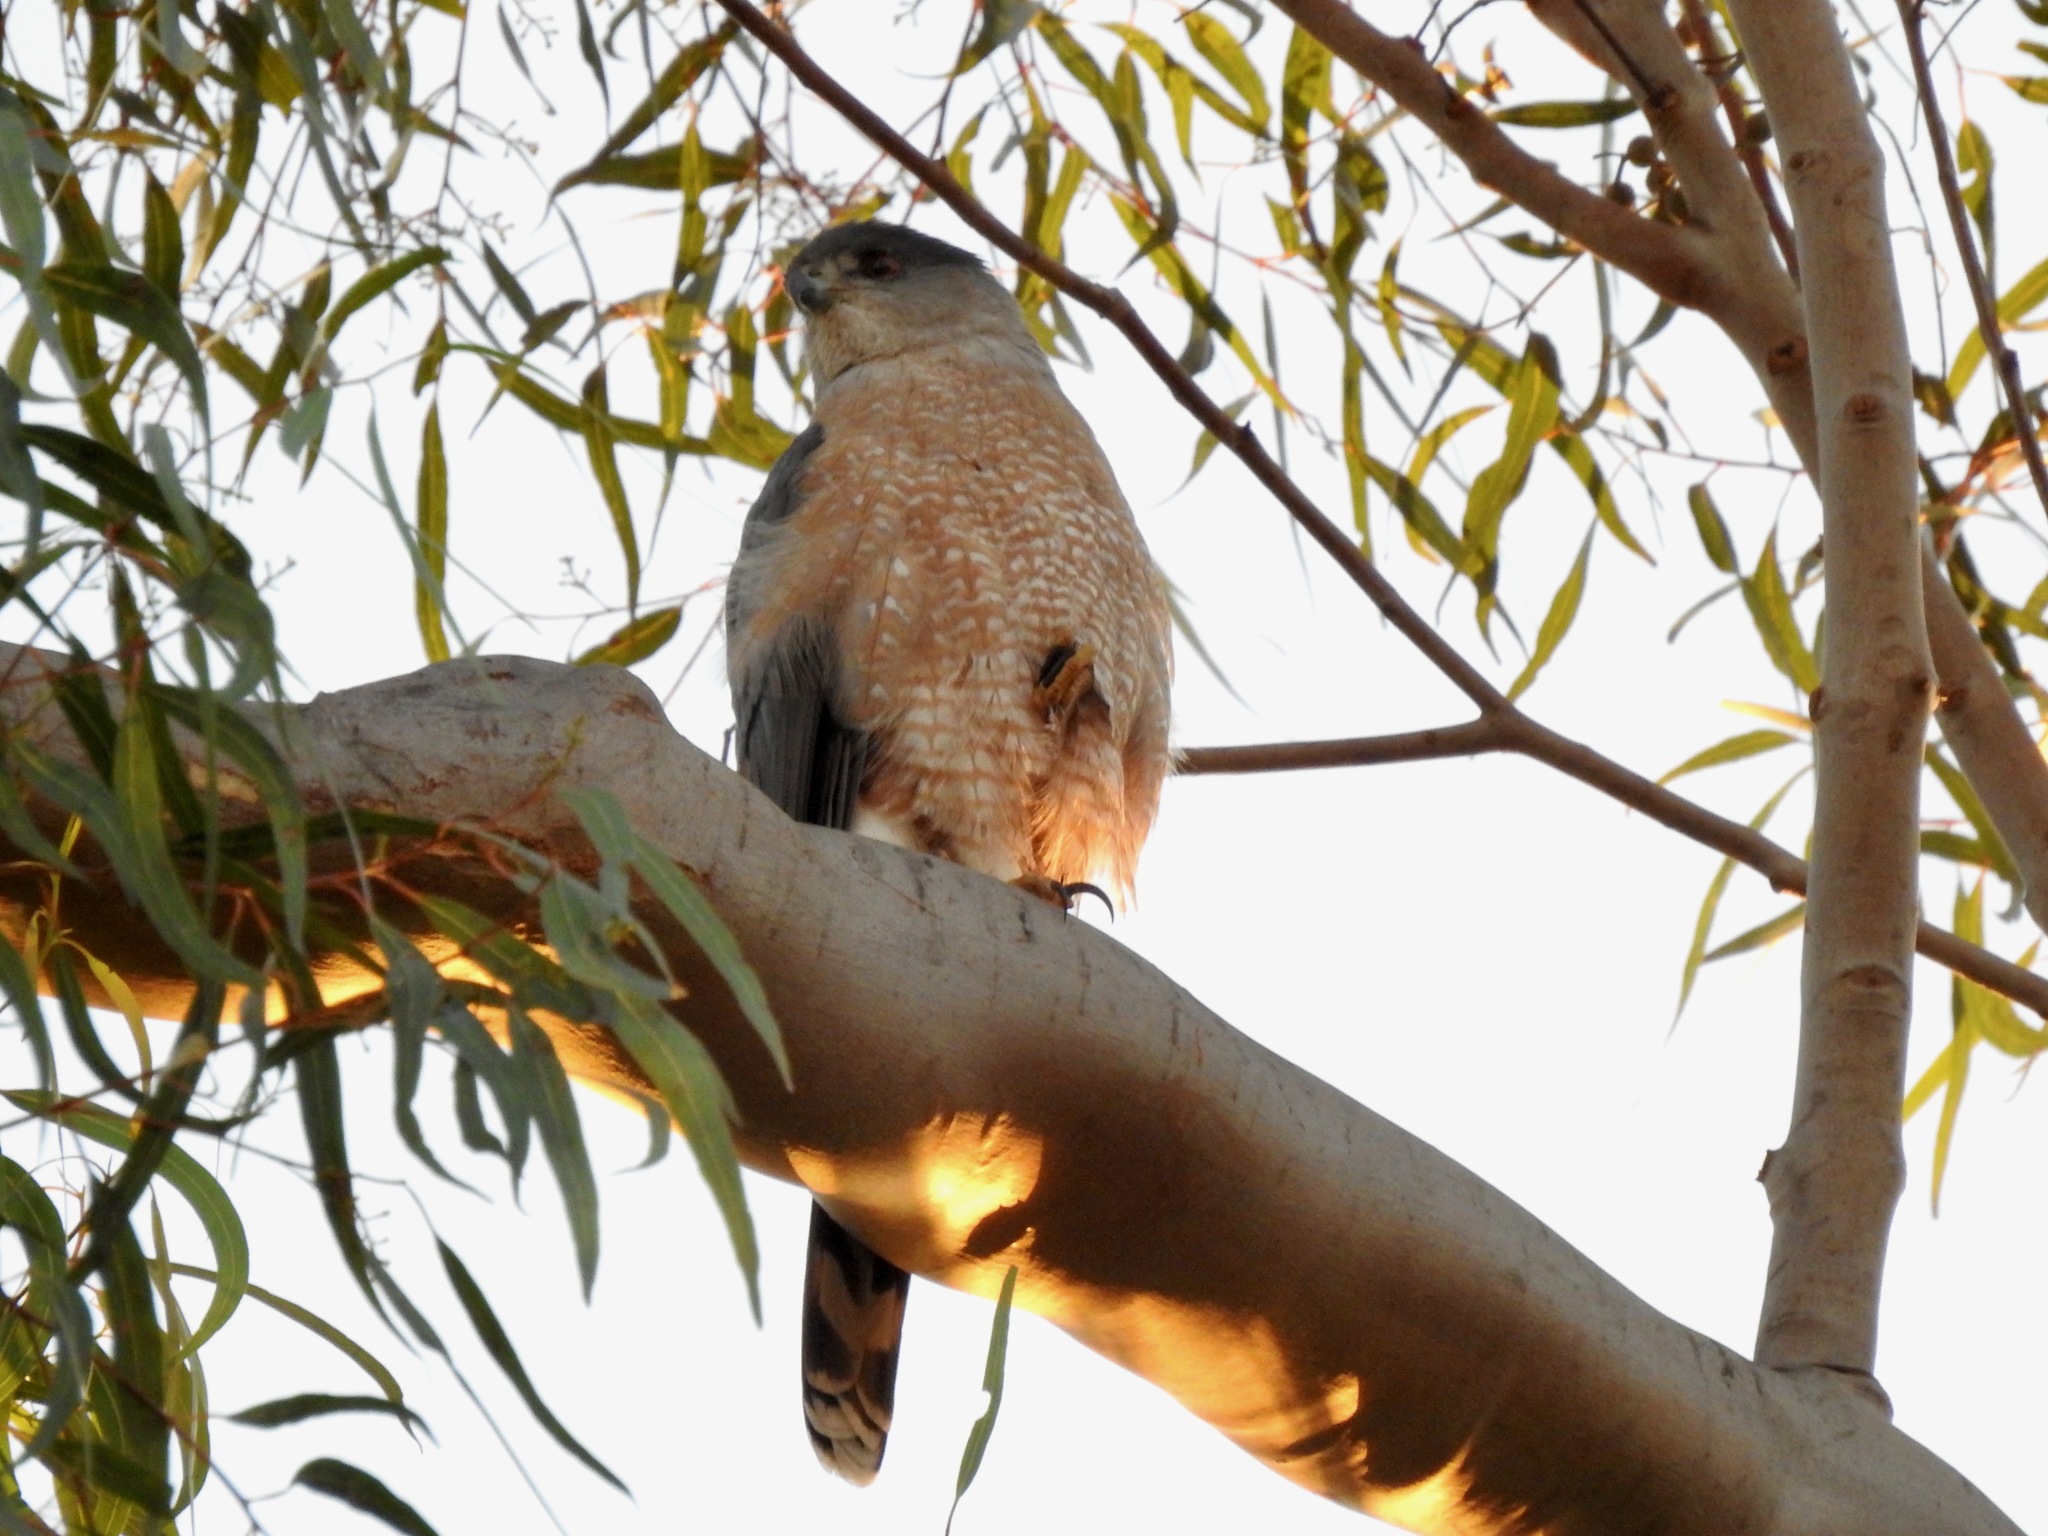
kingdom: Animalia
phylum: Chordata
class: Aves
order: Accipitriformes
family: Accipitridae
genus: Accipiter
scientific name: Accipiter cooperii
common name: Cooper's hawk
